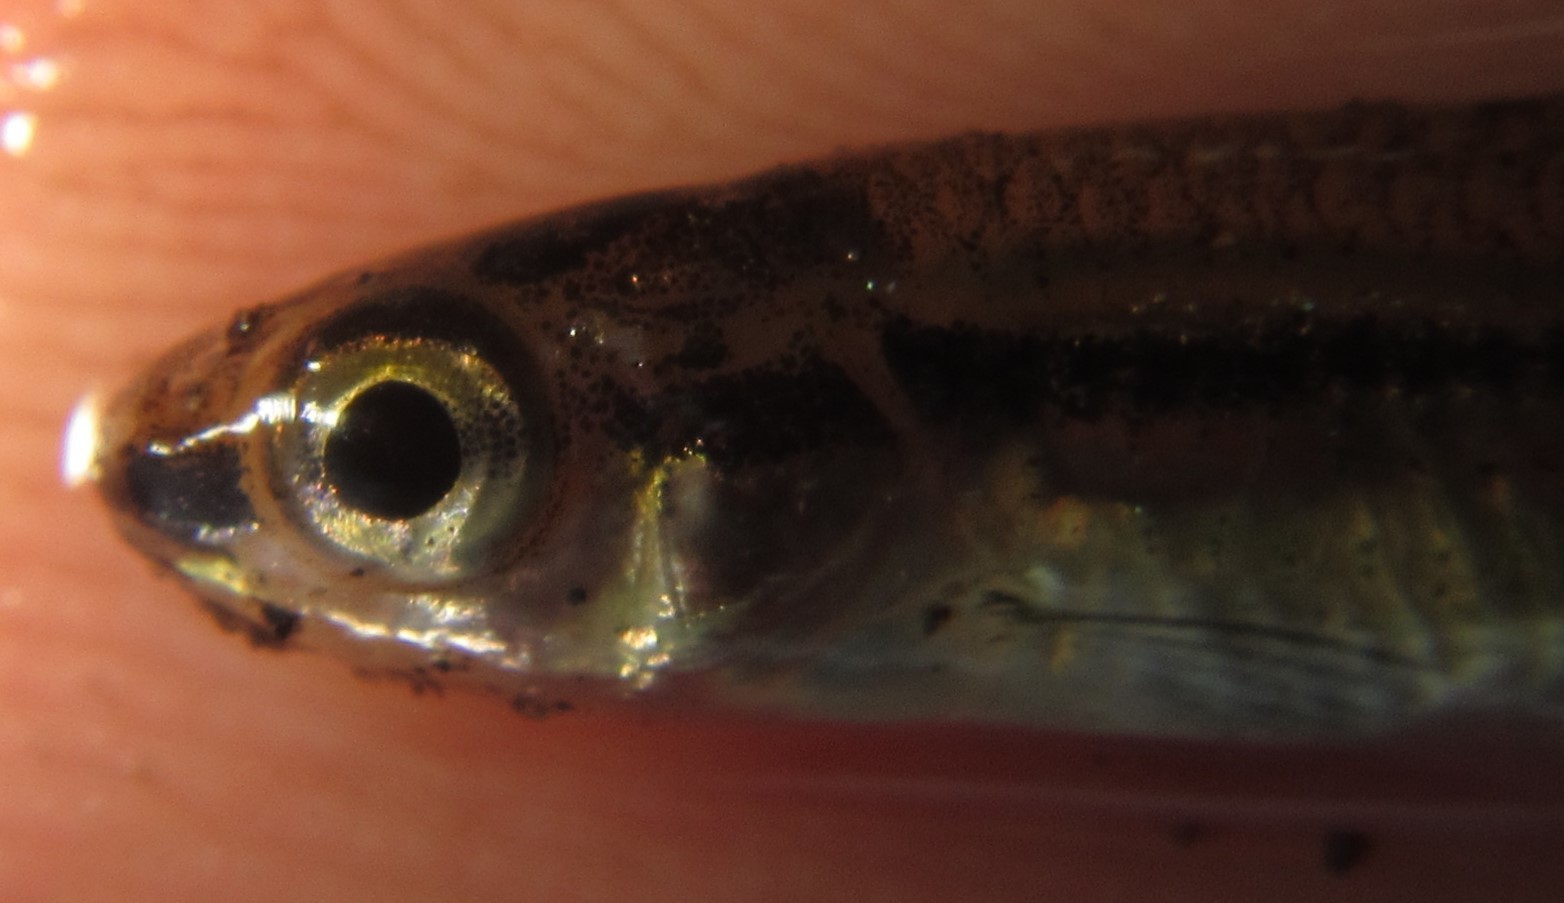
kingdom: Animalia
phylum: Chordata
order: Cypriniformes
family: Cyprinidae
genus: Enteromius
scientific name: Enteromius haasianus
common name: Sickle-fin barb
